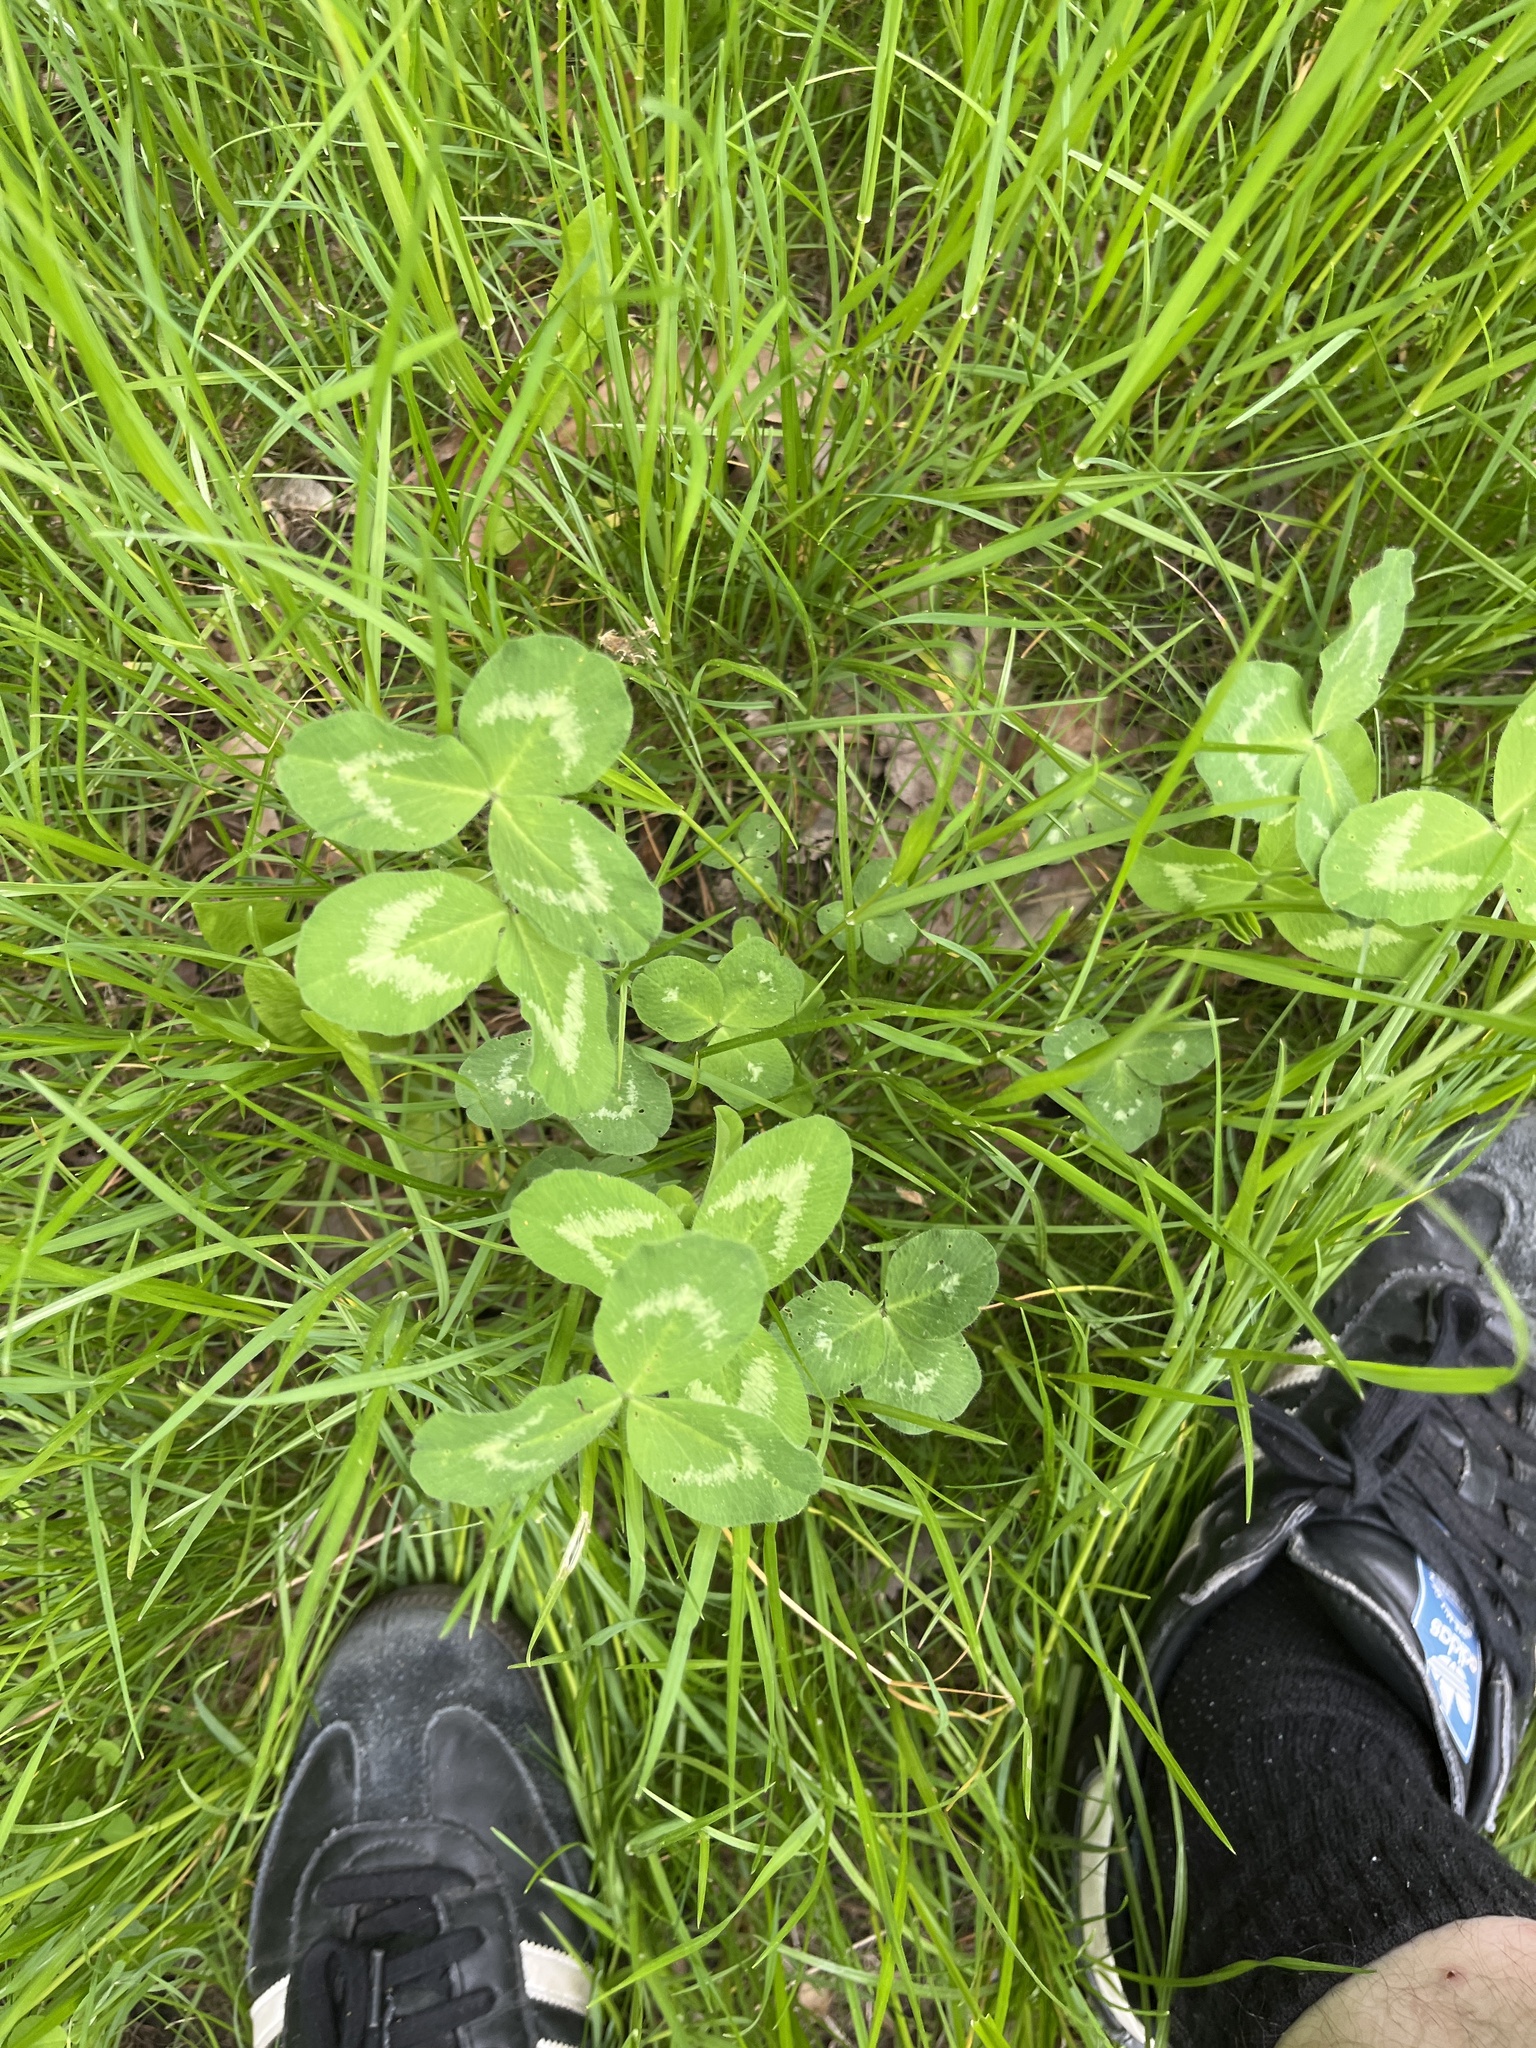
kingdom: Plantae
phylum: Tracheophyta
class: Magnoliopsida
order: Fabales
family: Fabaceae
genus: Trifolium
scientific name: Trifolium pratense
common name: Red clover
